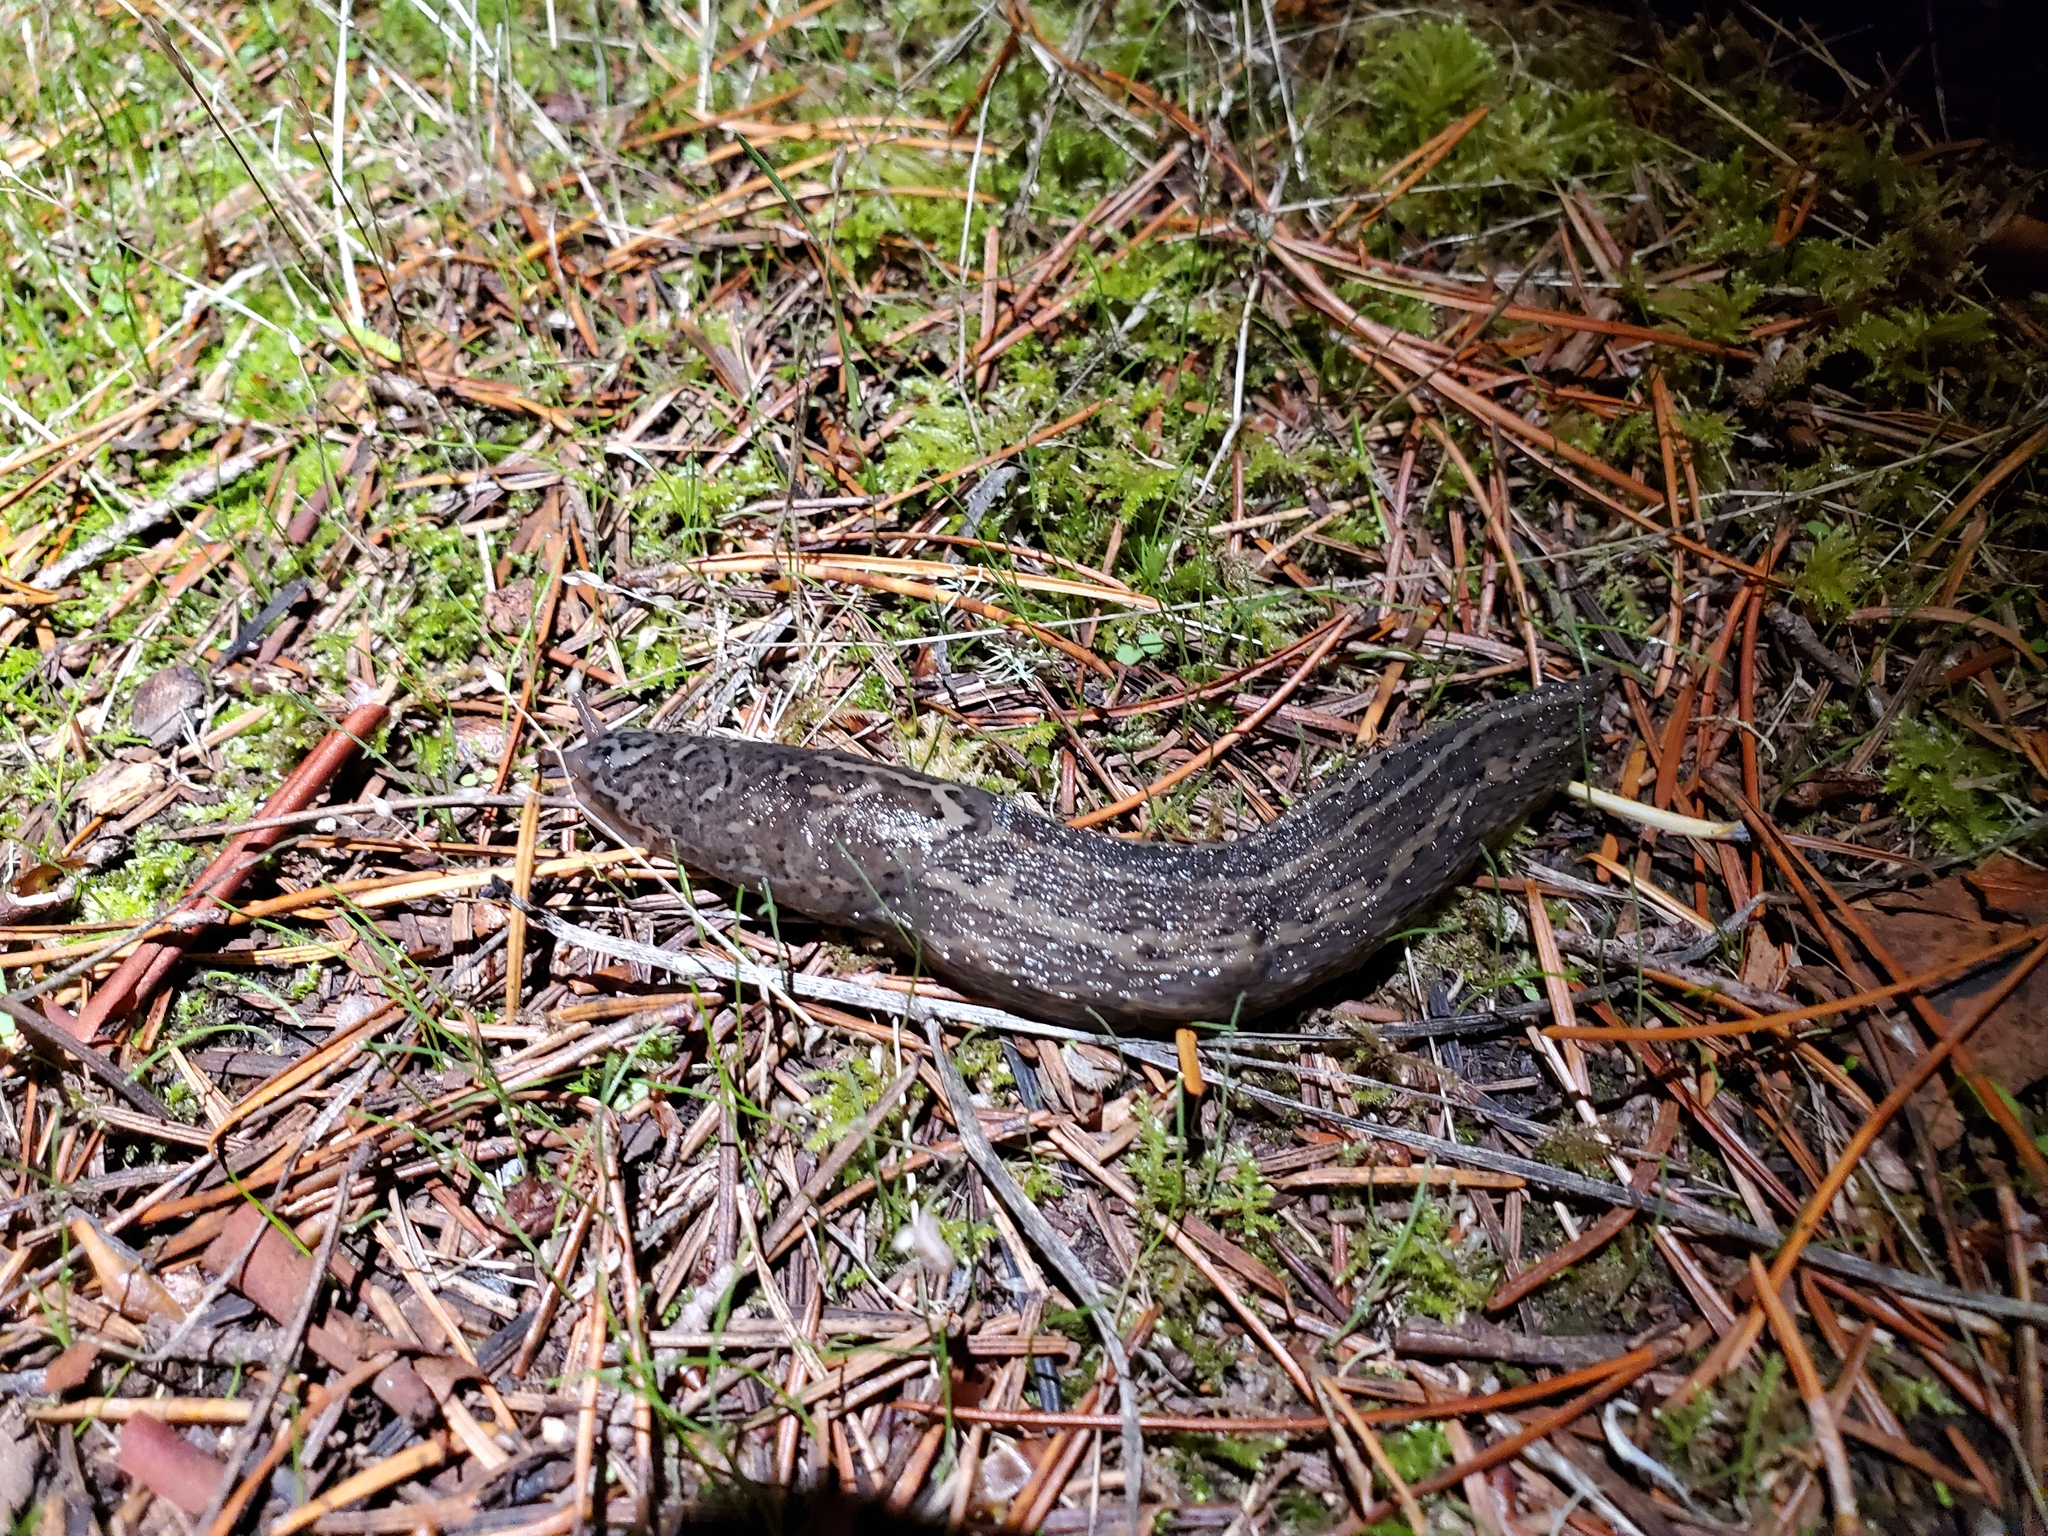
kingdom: Animalia
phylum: Mollusca
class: Gastropoda
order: Stylommatophora
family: Limacidae
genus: Limax
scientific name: Limax maximus
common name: Great grey slug
